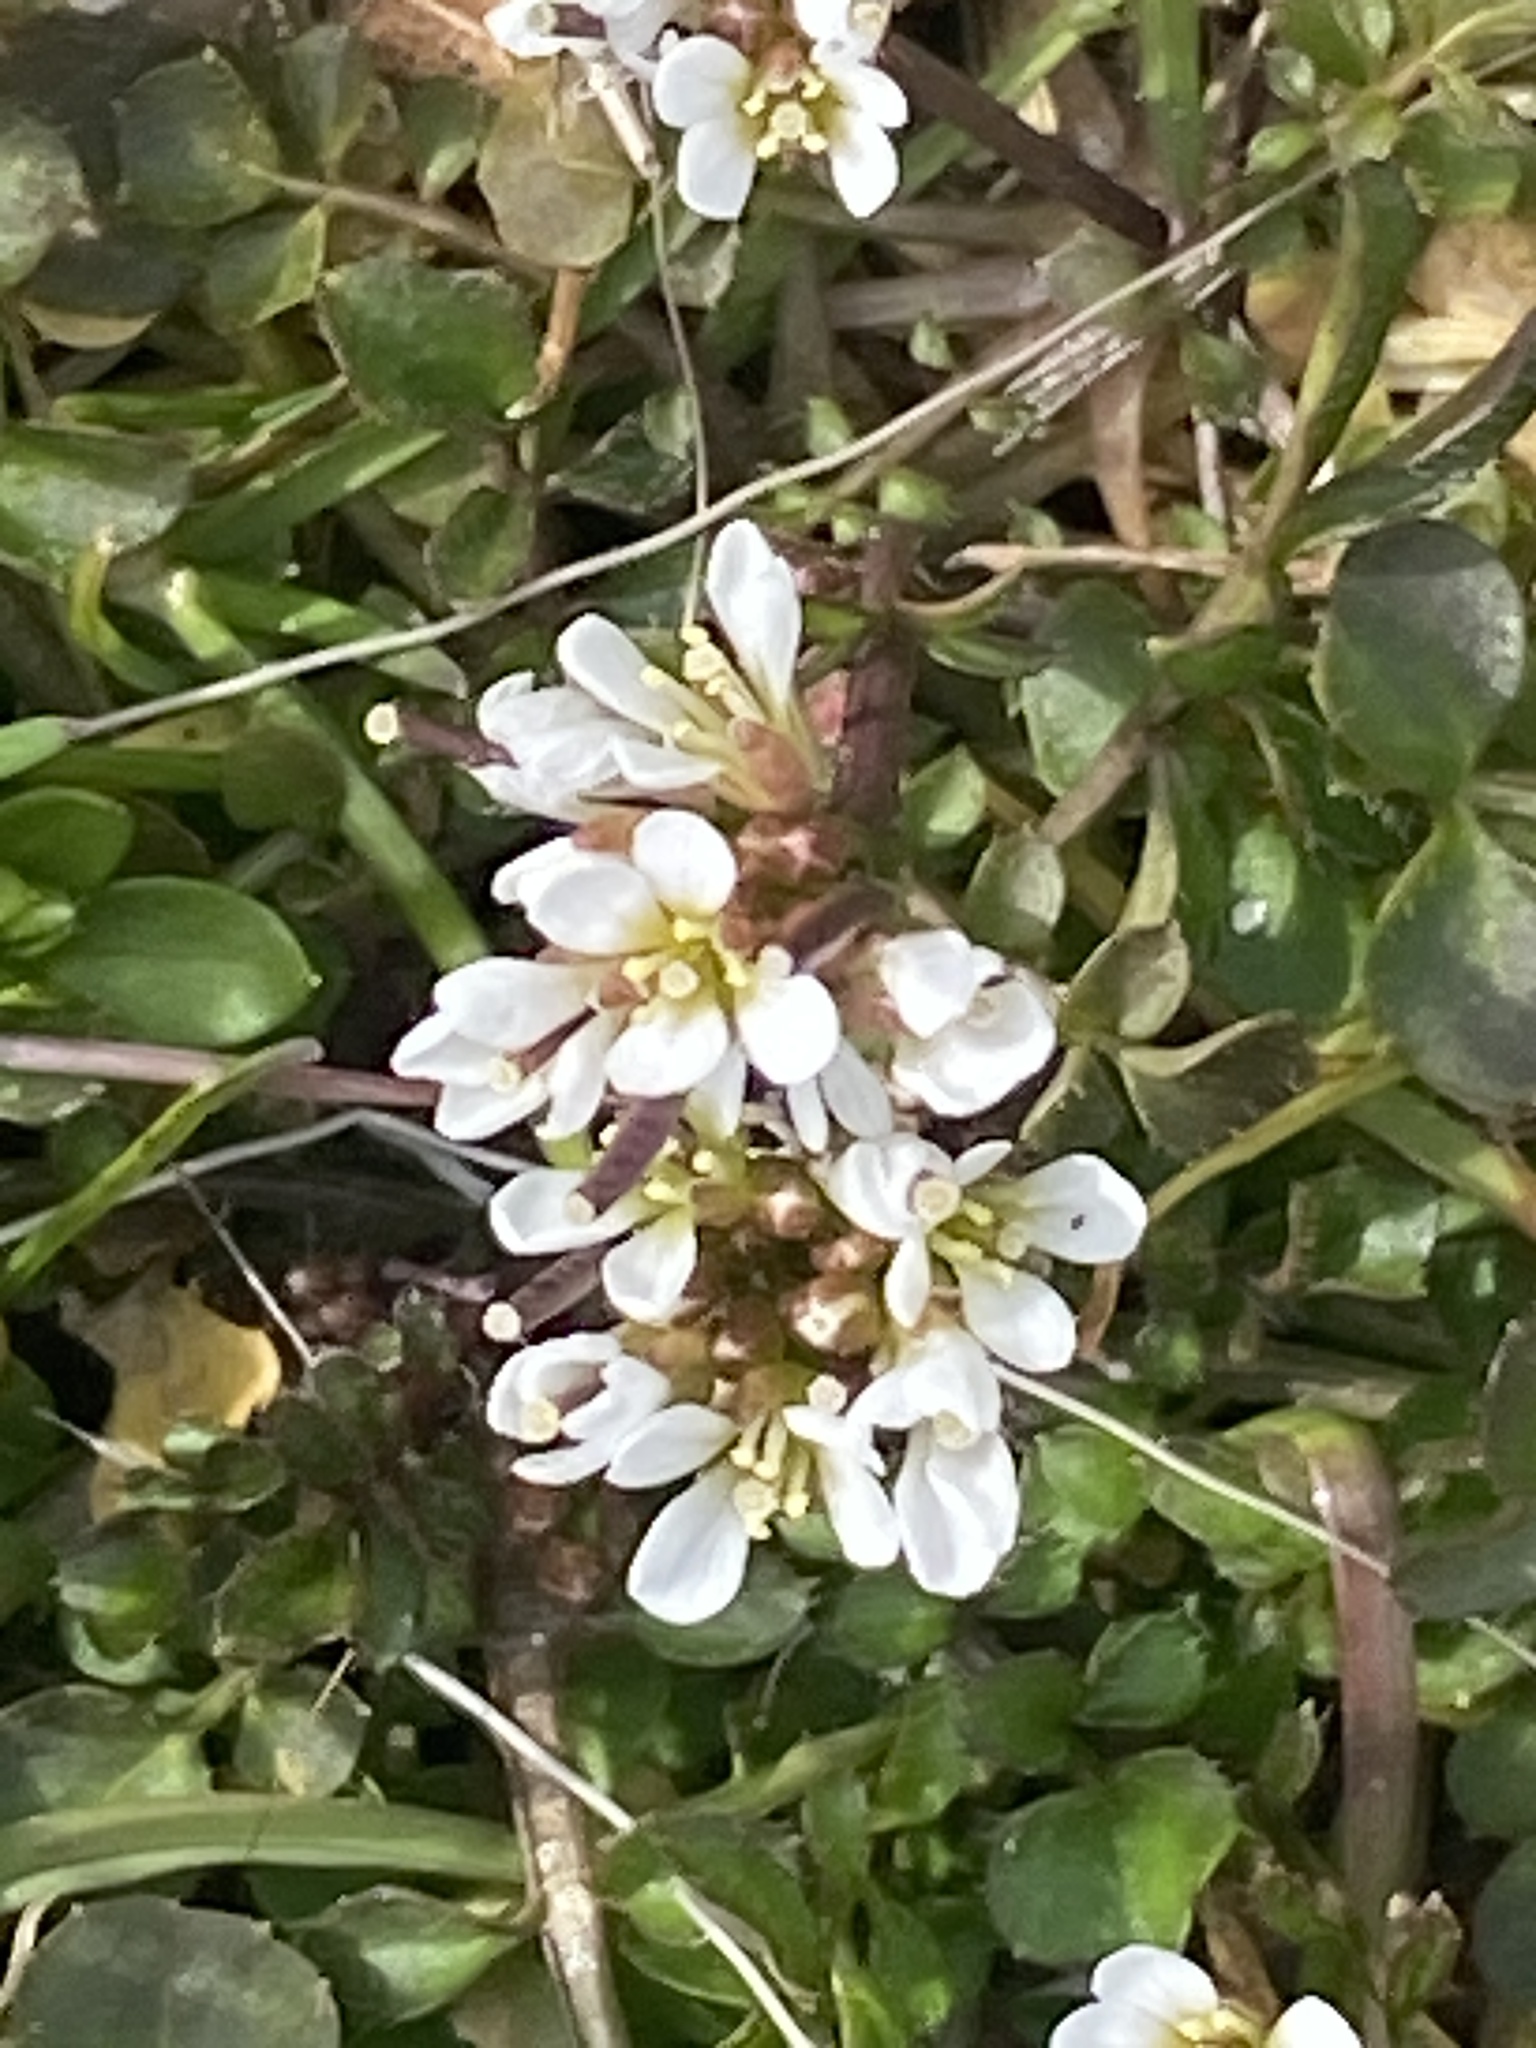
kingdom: Plantae
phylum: Tracheophyta
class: Magnoliopsida
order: Brassicales
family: Brassicaceae
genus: Cardamine
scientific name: Cardamine hirsuta
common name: Hairy bittercress
